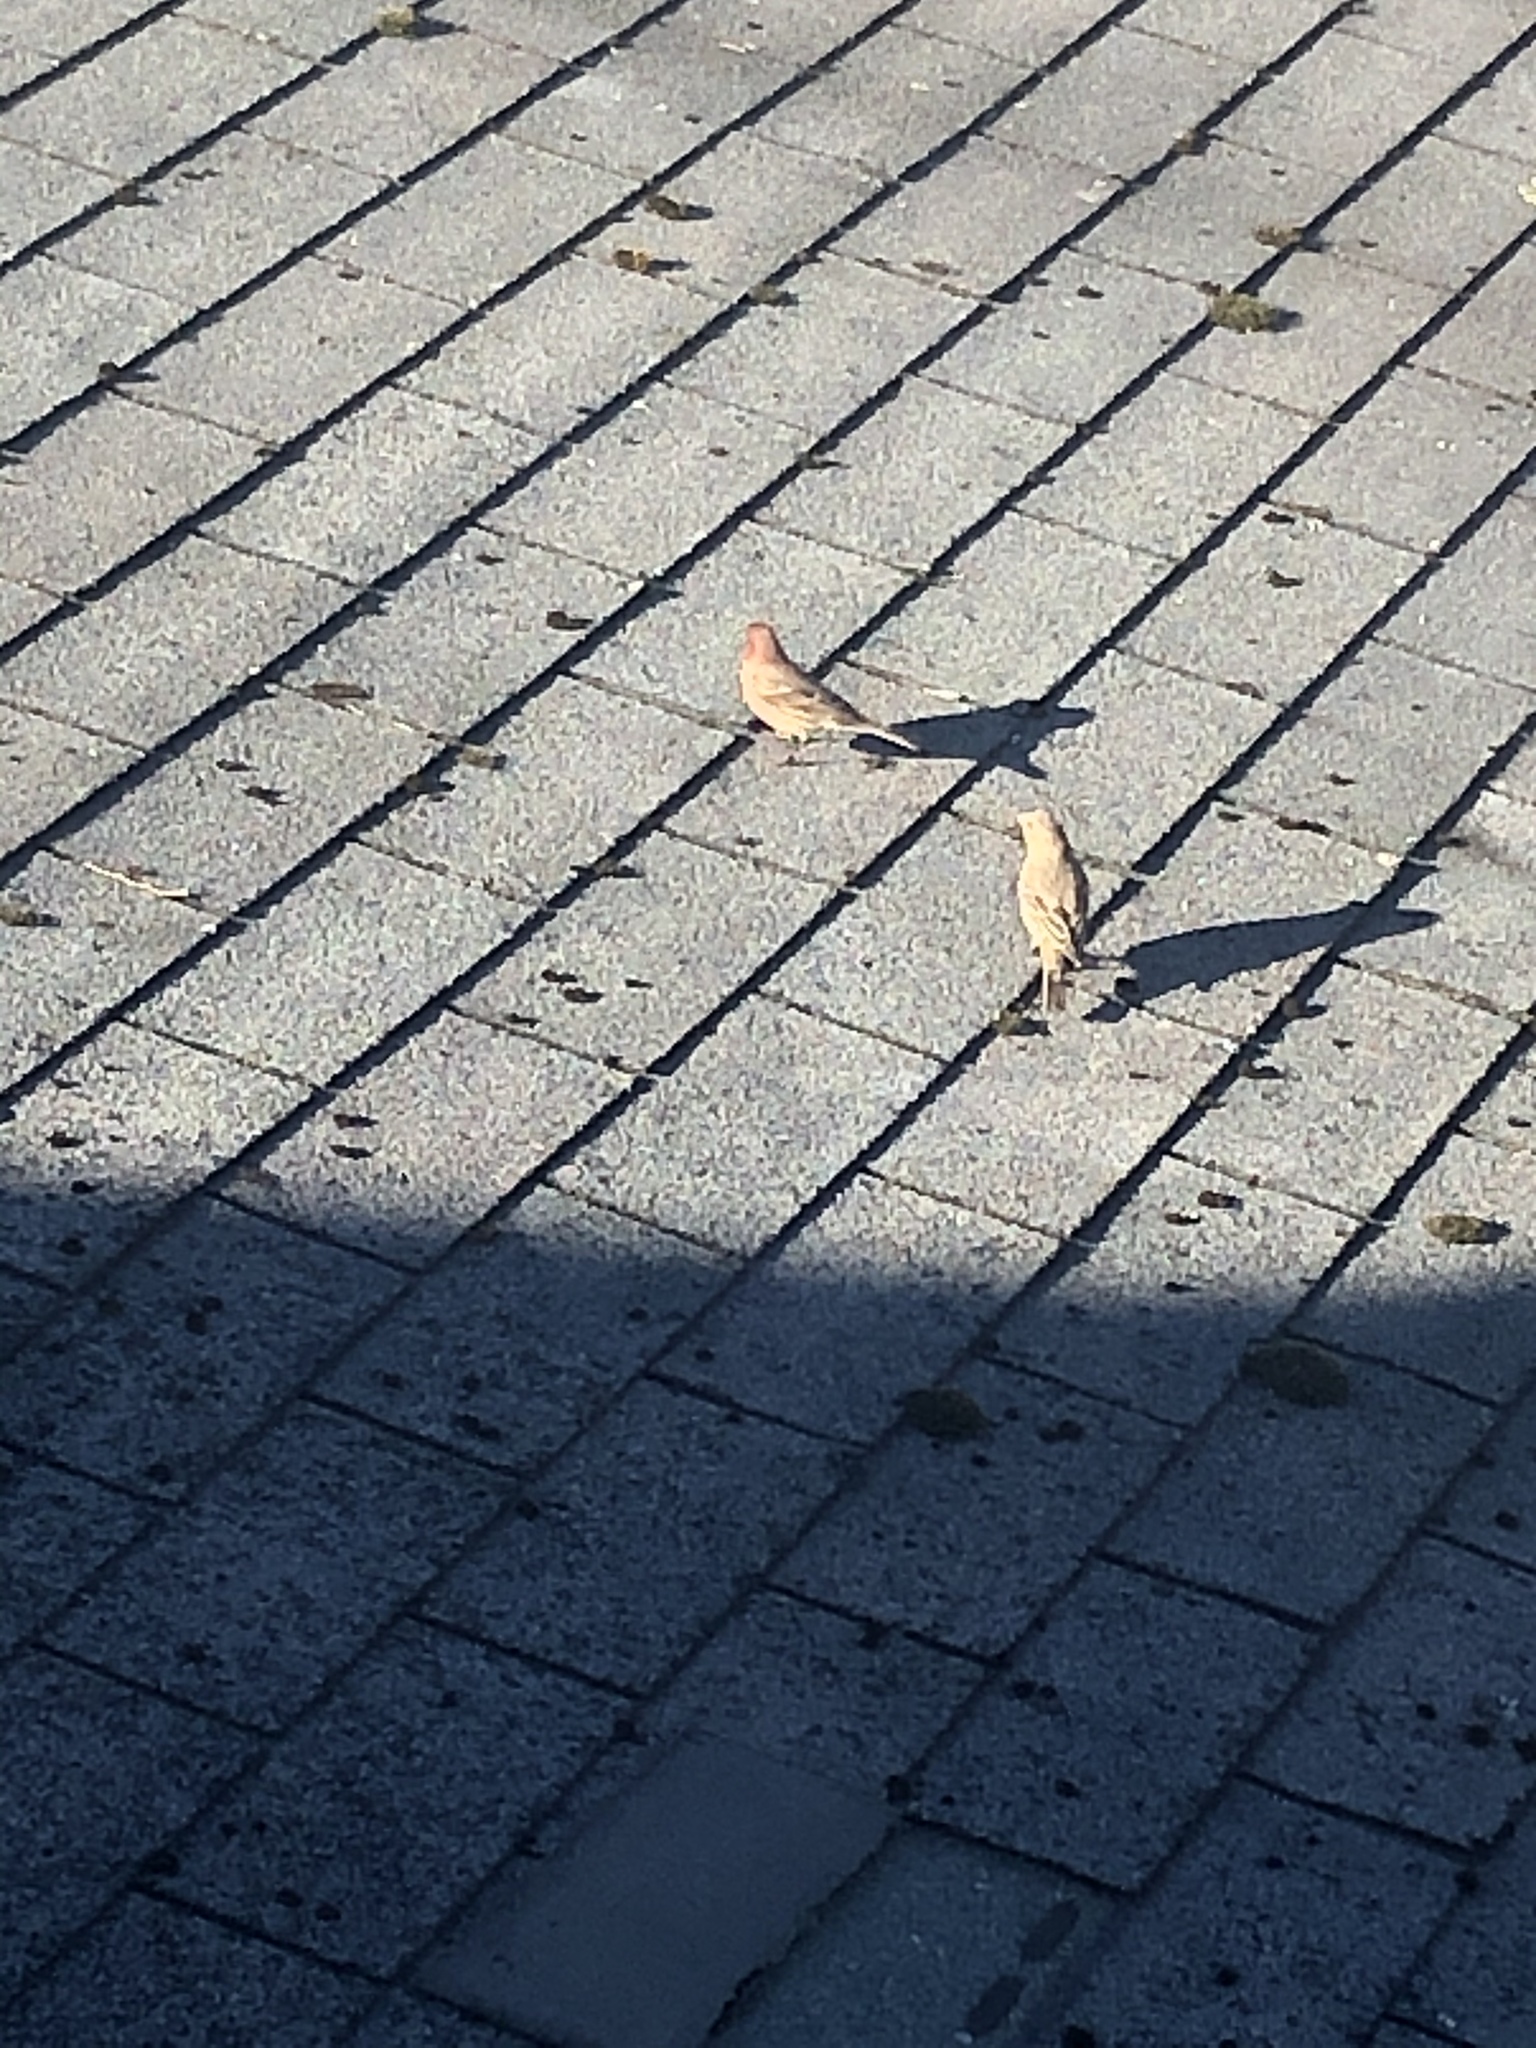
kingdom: Animalia
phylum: Chordata
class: Aves
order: Passeriformes
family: Fringillidae
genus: Haemorhous
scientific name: Haemorhous mexicanus
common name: House finch
